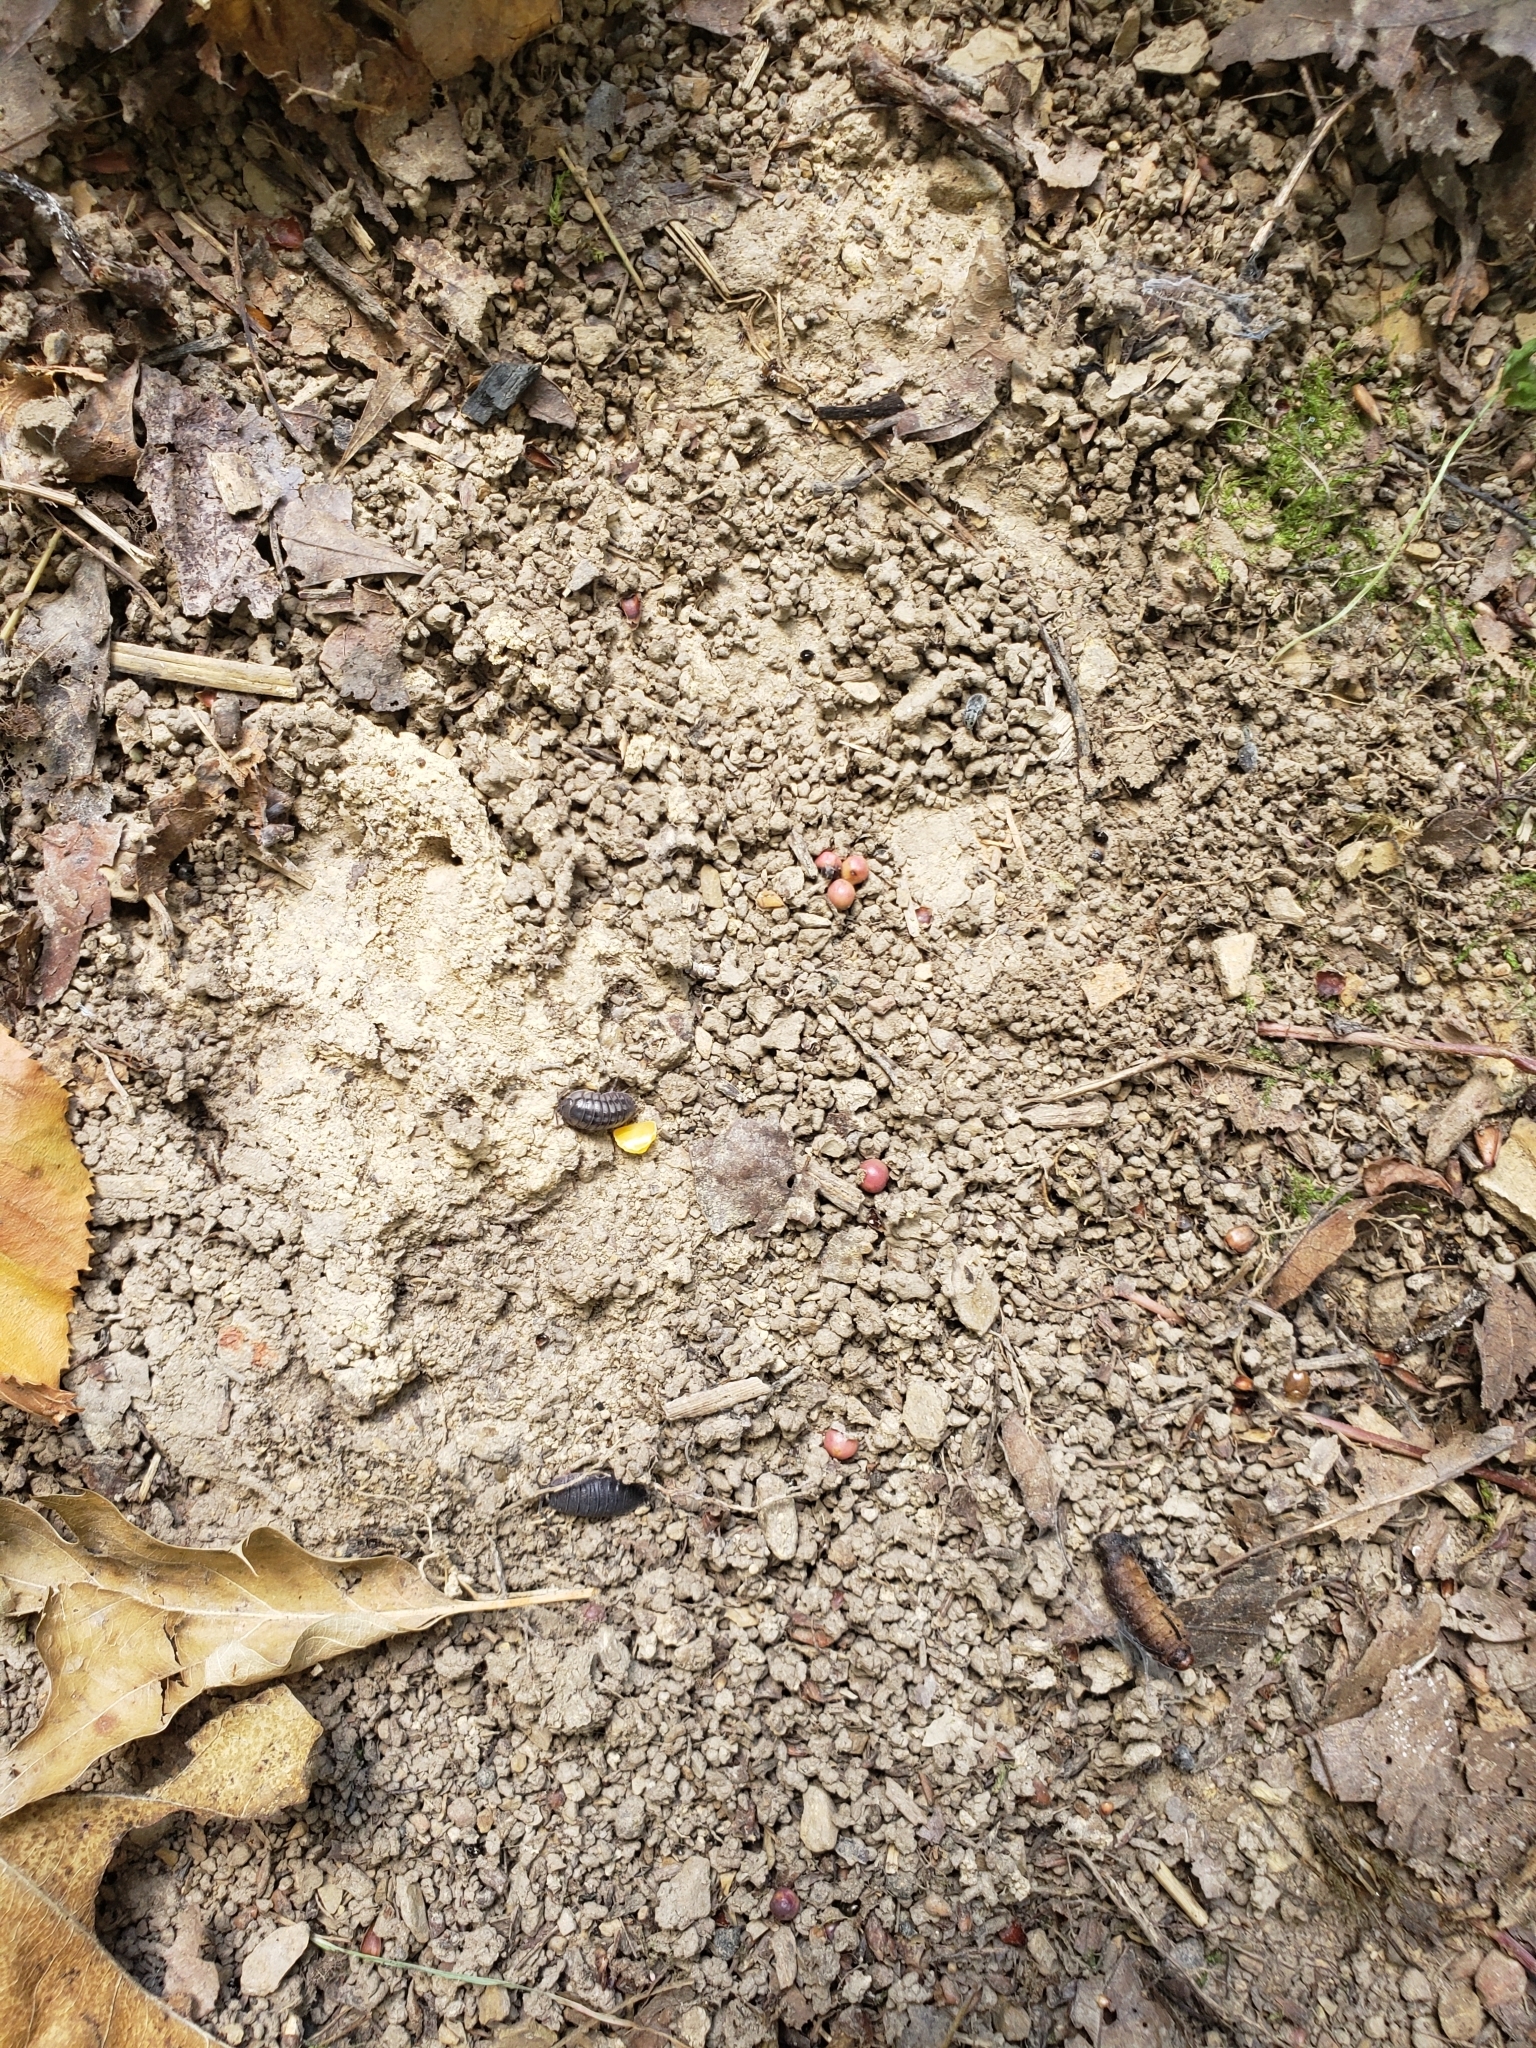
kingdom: Animalia
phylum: Arthropoda
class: Insecta
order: Hymenoptera
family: Cynipidae
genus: Kokkocynips
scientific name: Kokkocynips rileyi
